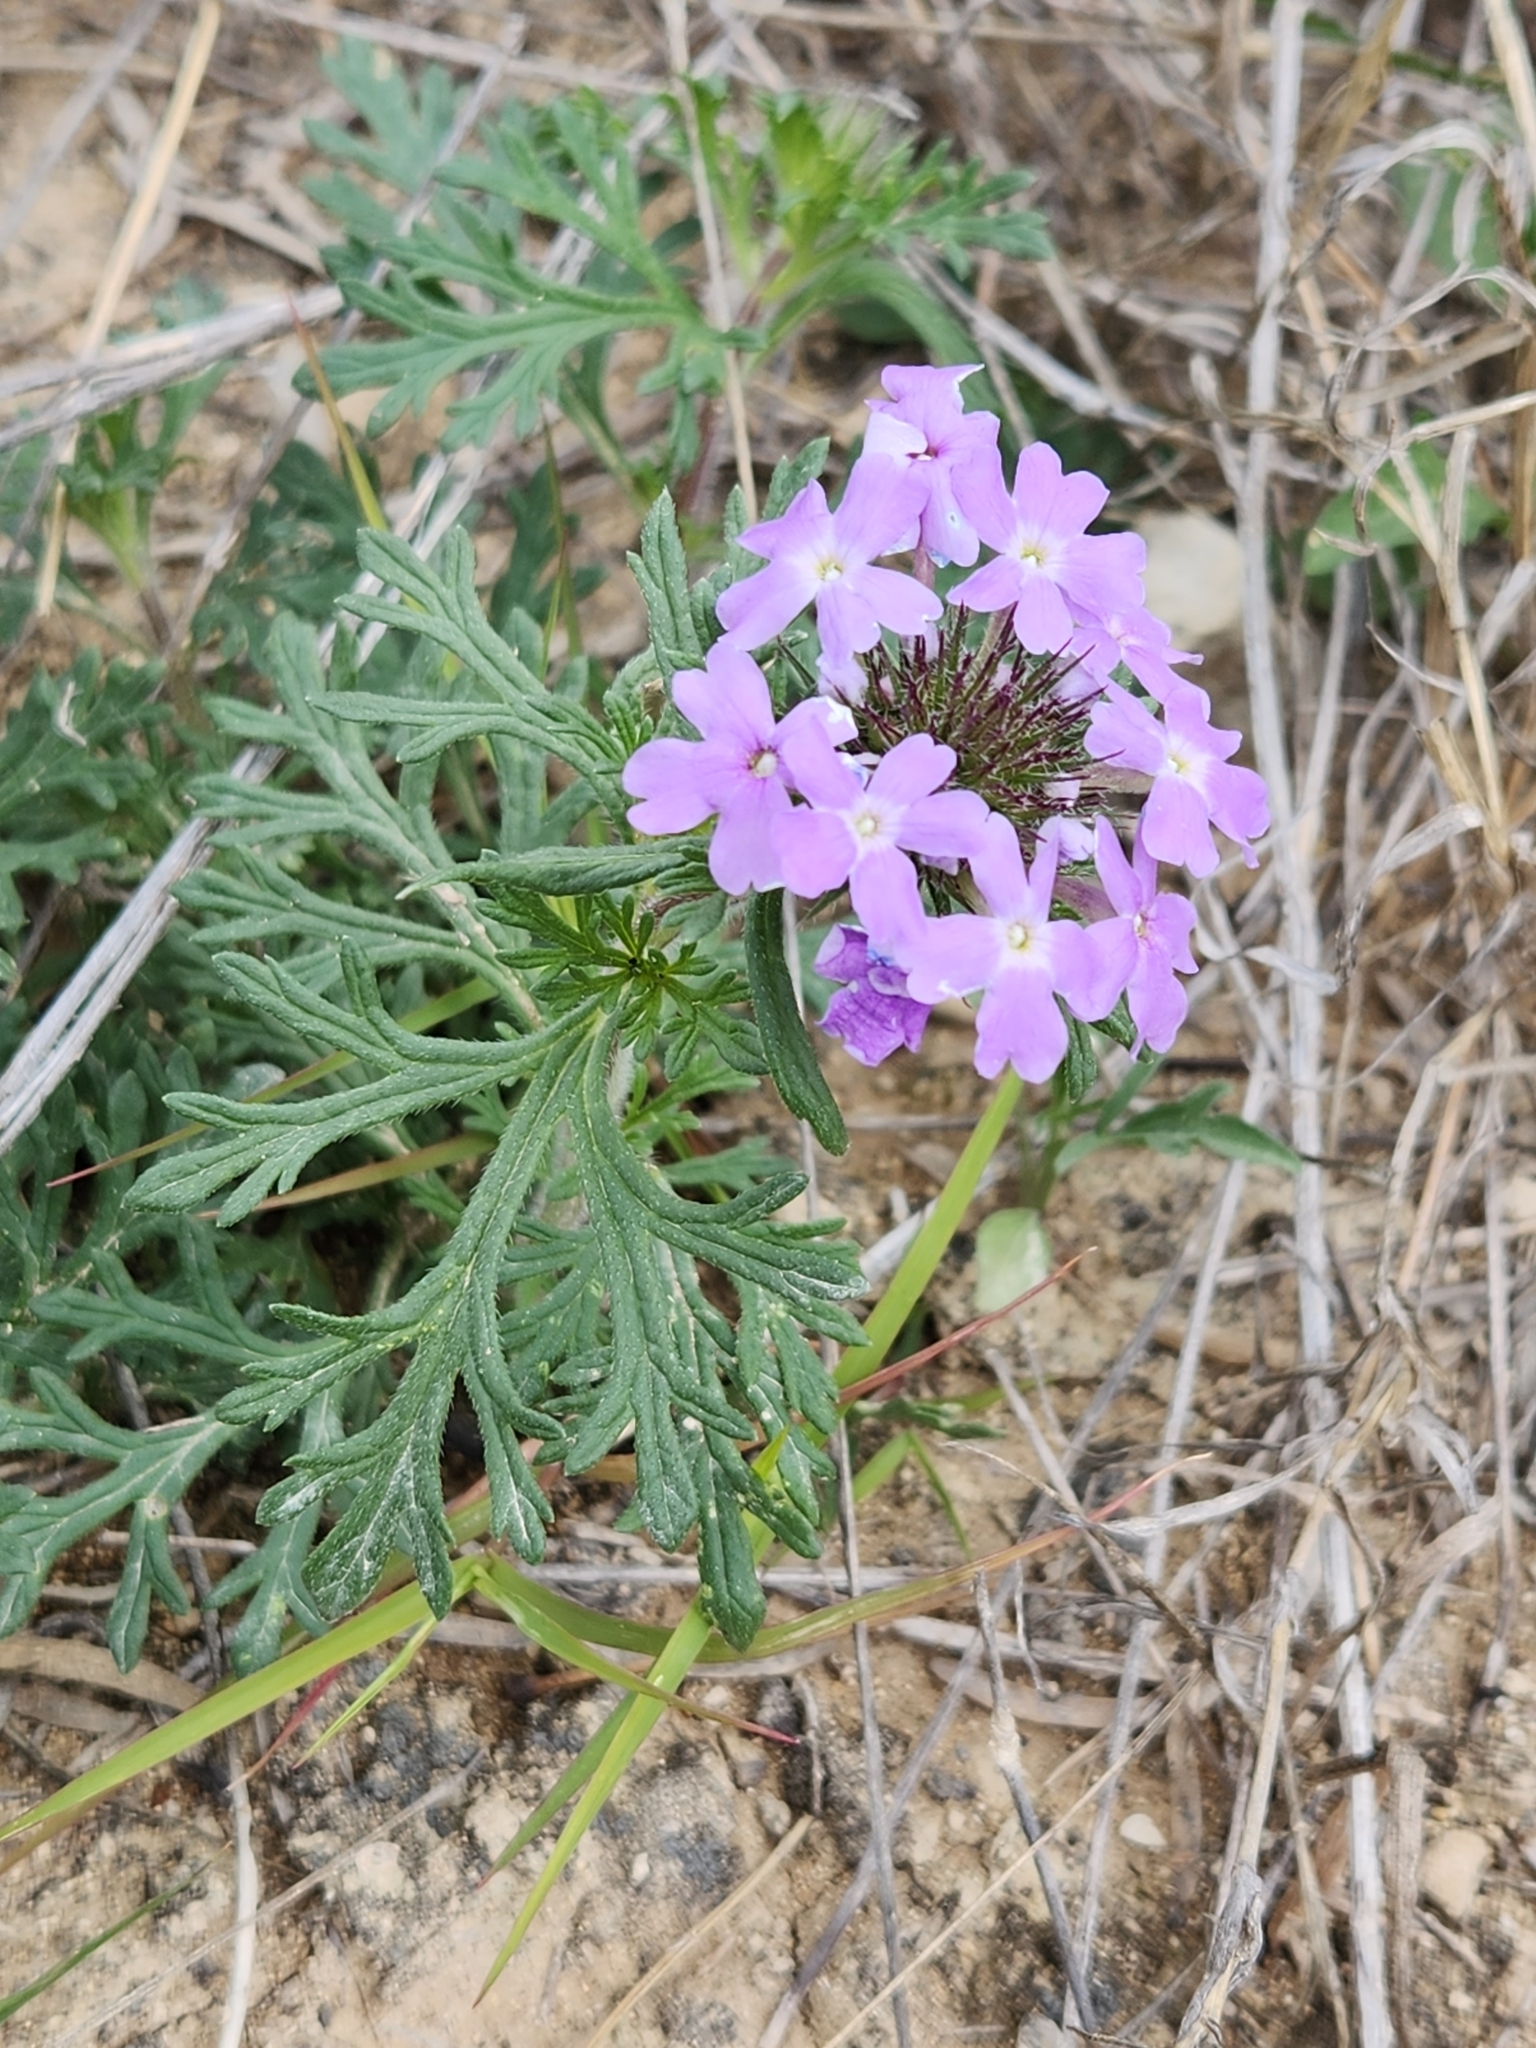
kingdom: Plantae
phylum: Tracheophyta
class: Magnoliopsida
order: Lamiales
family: Verbenaceae
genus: Verbena
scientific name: Verbena bipinnatifida
